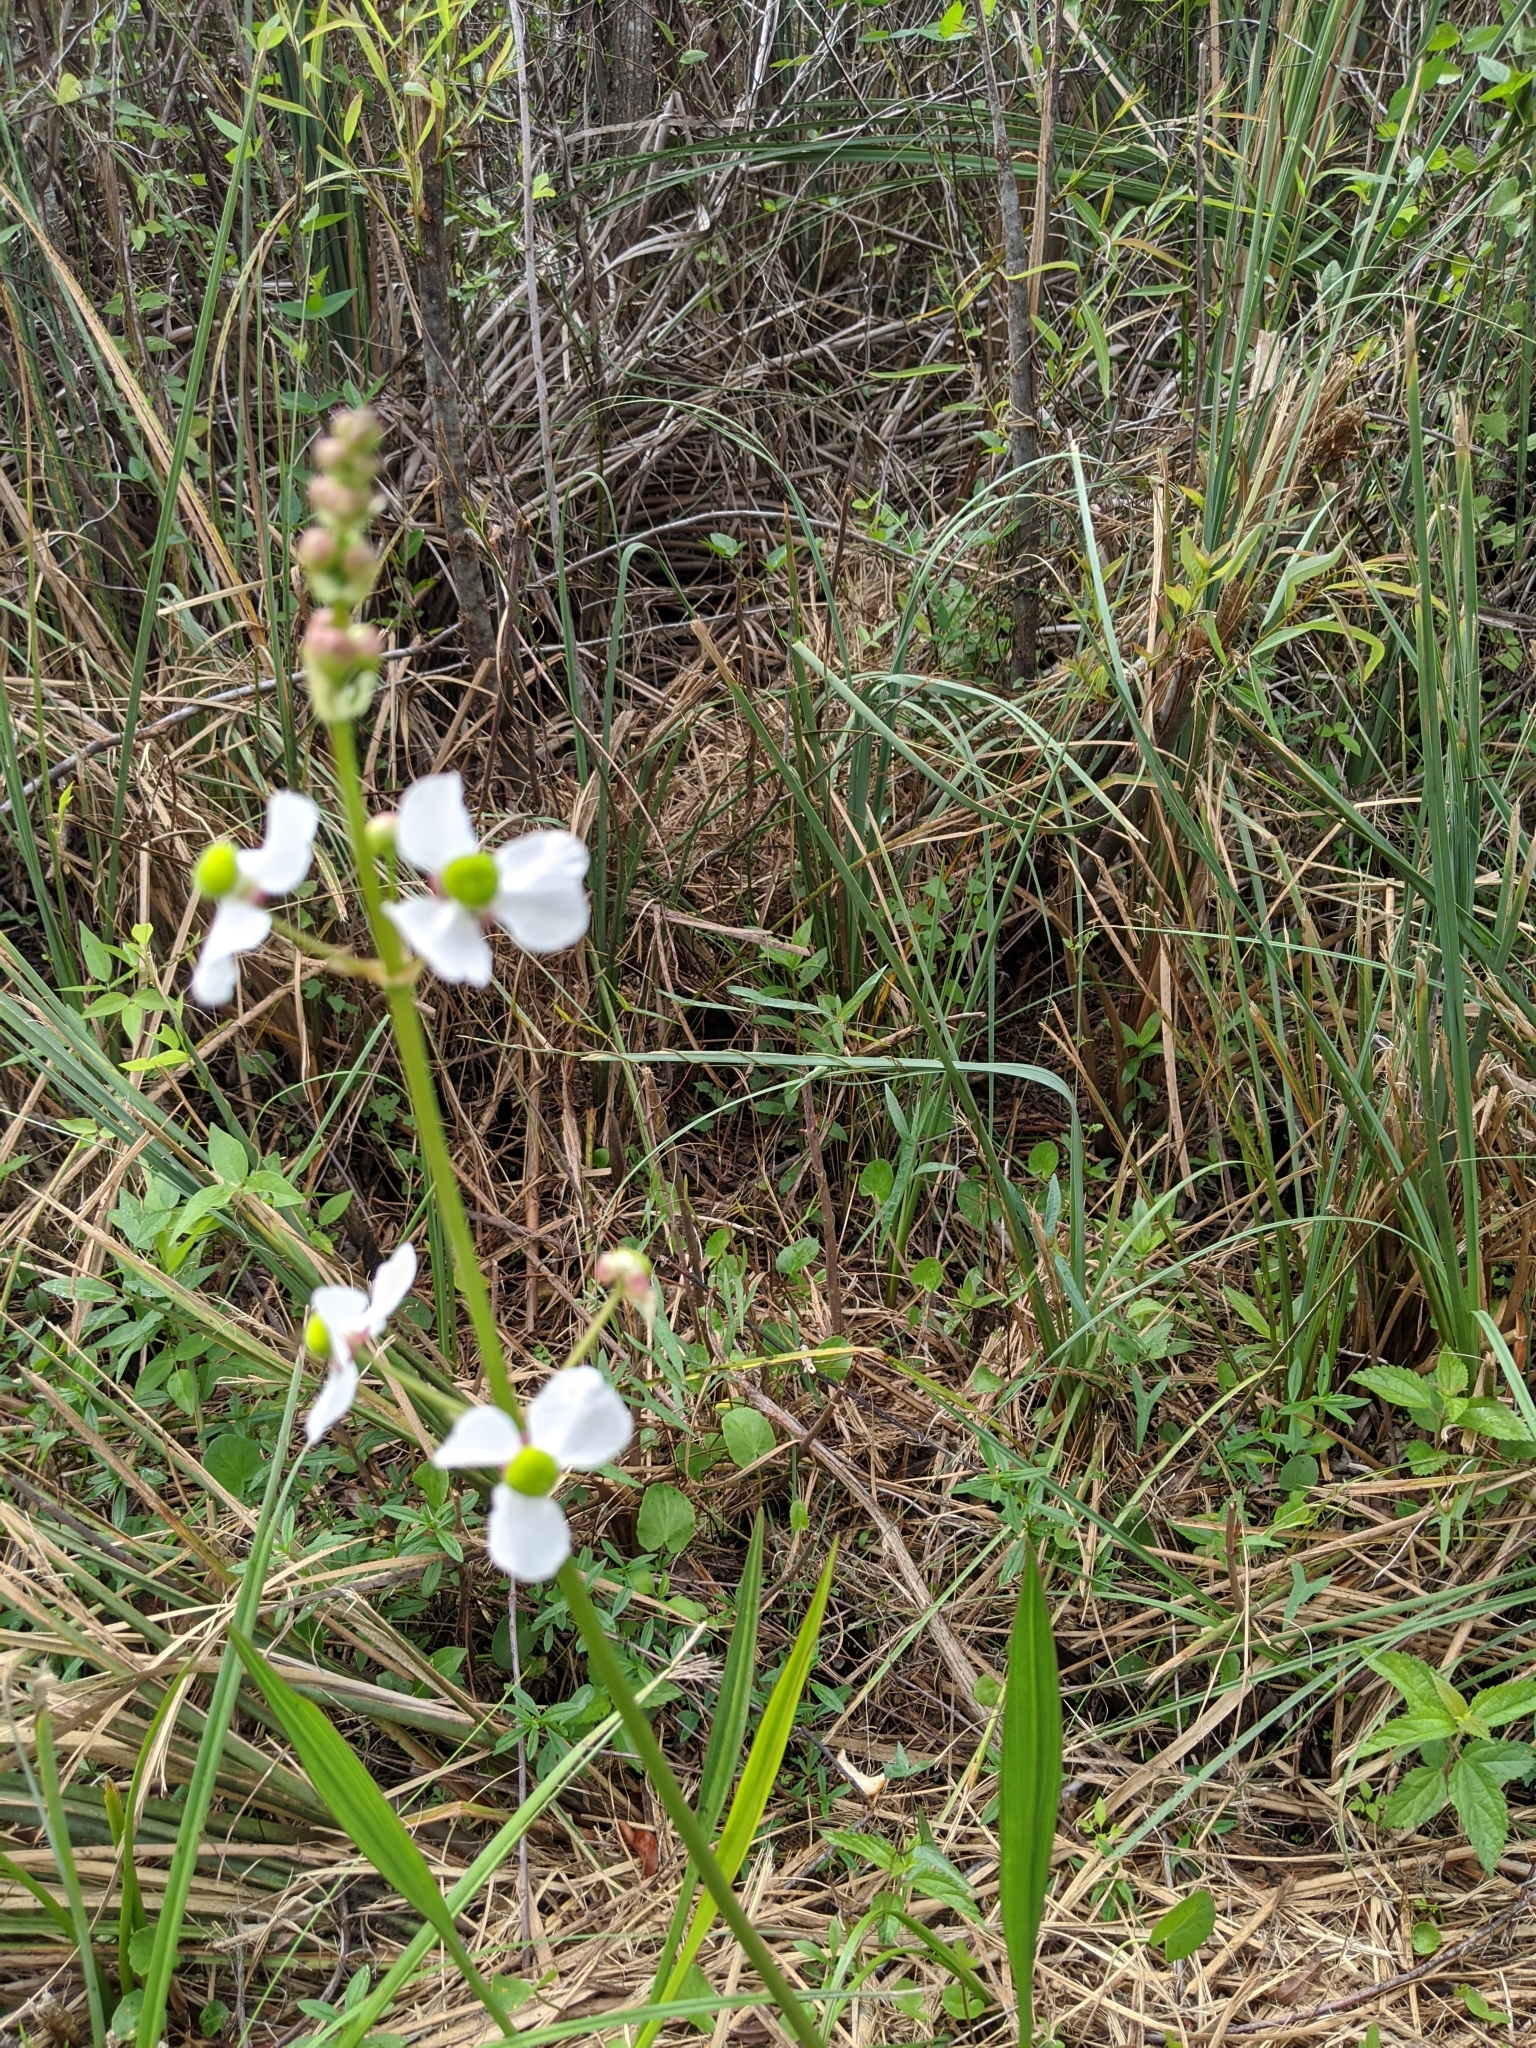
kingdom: Plantae
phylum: Tracheophyta
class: Liliopsida
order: Alismatales
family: Alismataceae
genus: Sagittaria
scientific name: Sagittaria lancifolia
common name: Lance-leaf arrowhead
